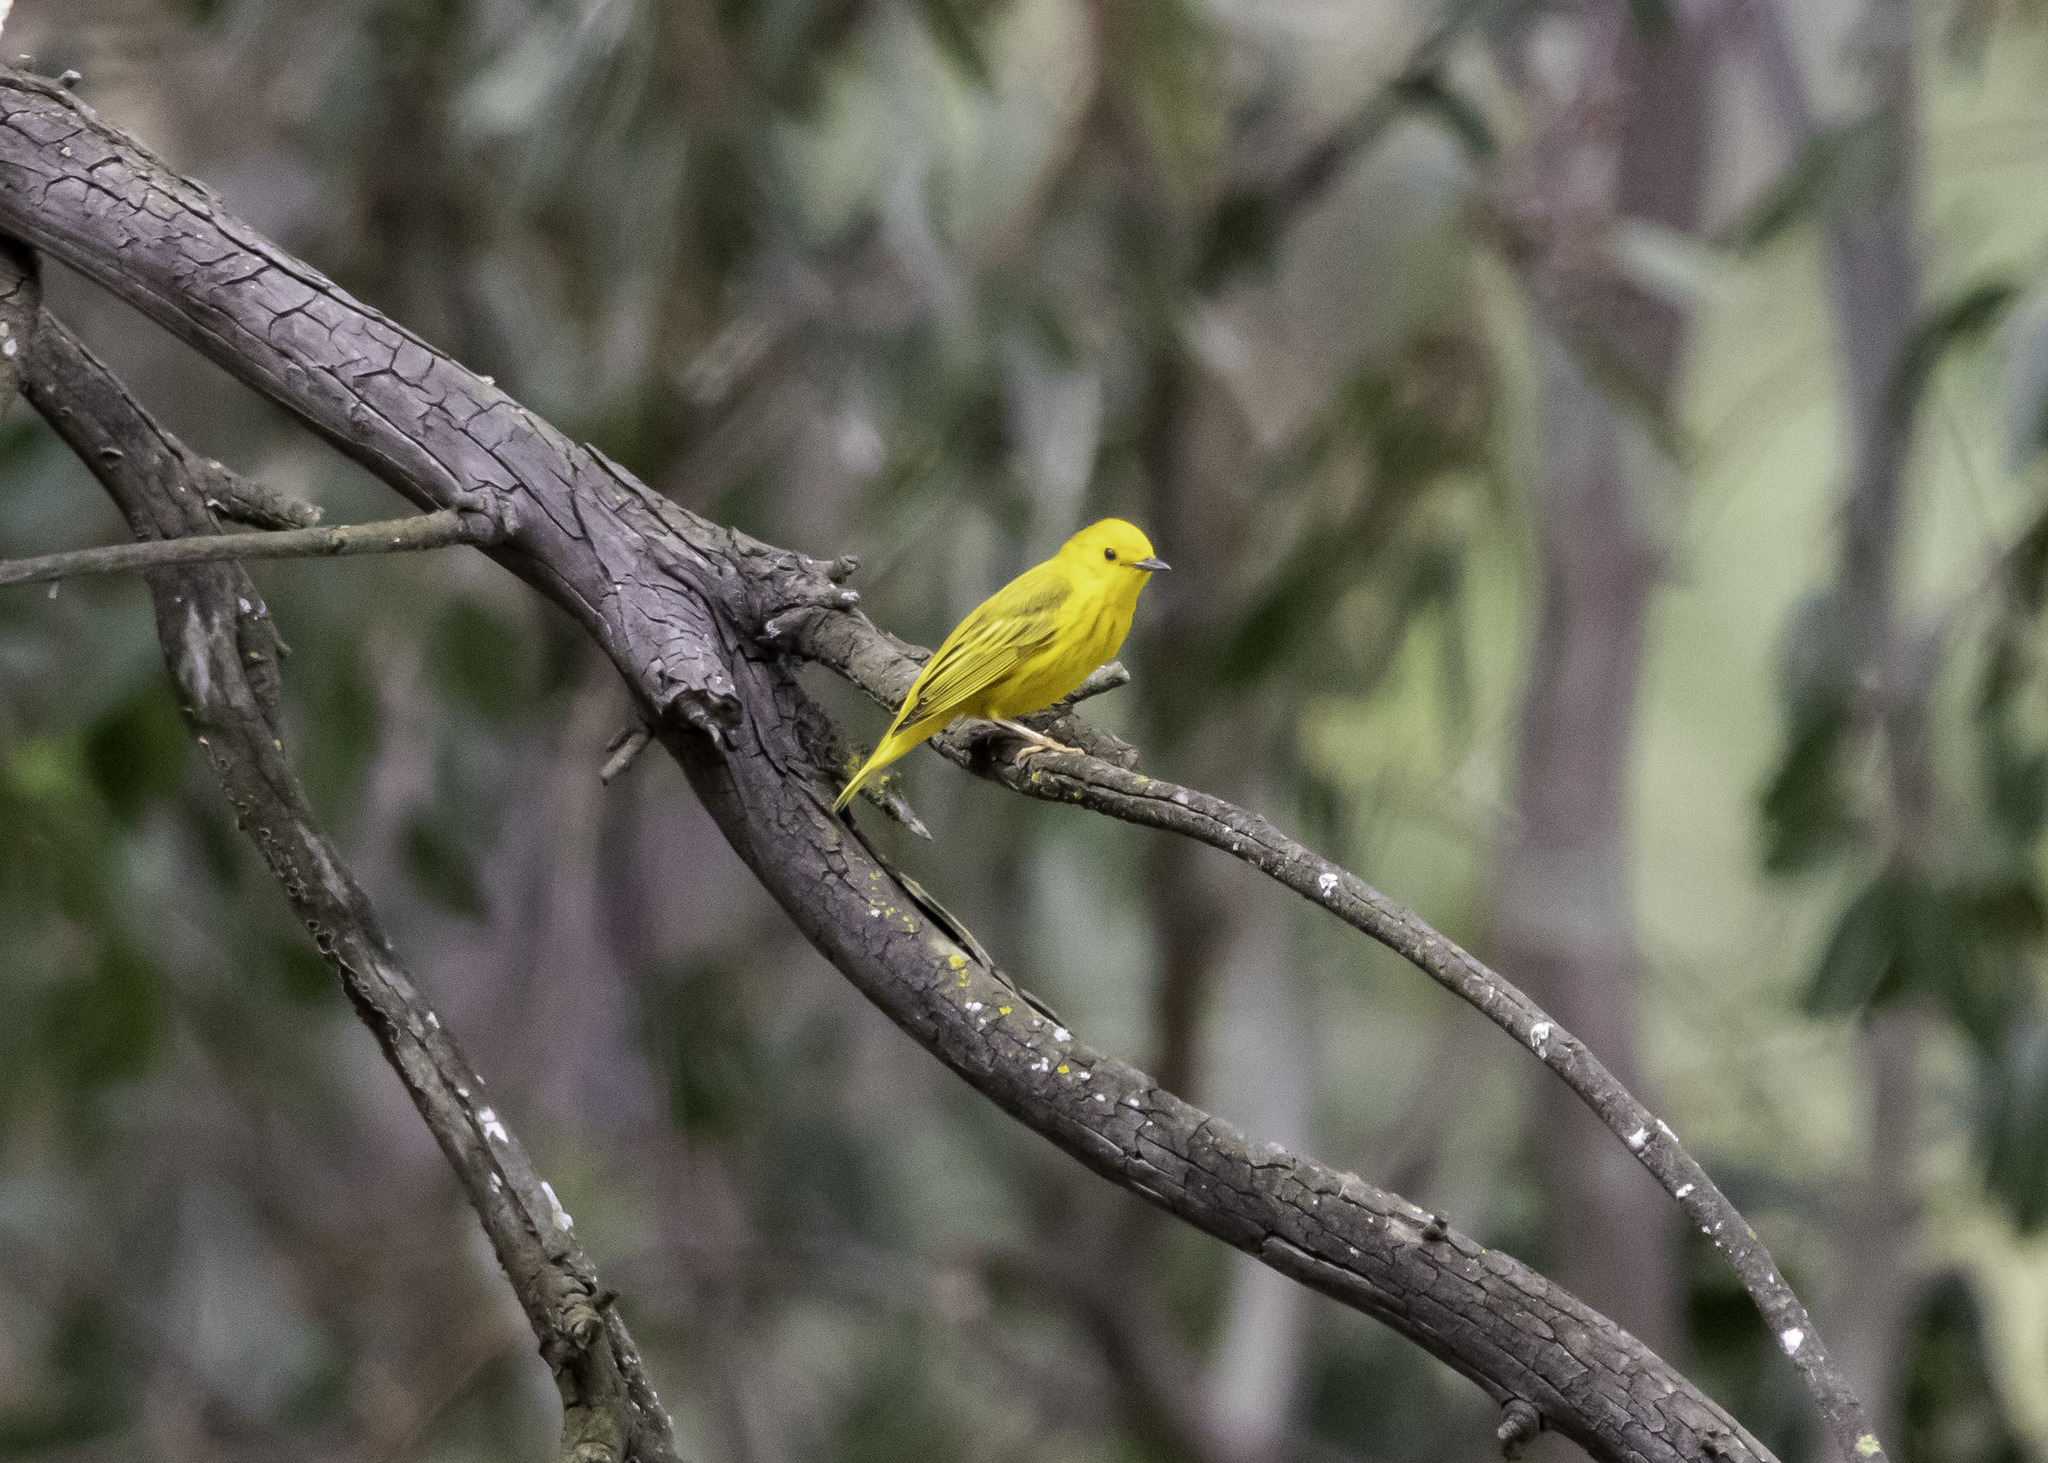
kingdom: Animalia
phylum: Chordata
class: Aves
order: Passeriformes
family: Parulidae
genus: Setophaga
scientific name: Setophaga petechia
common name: Yellow warbler
